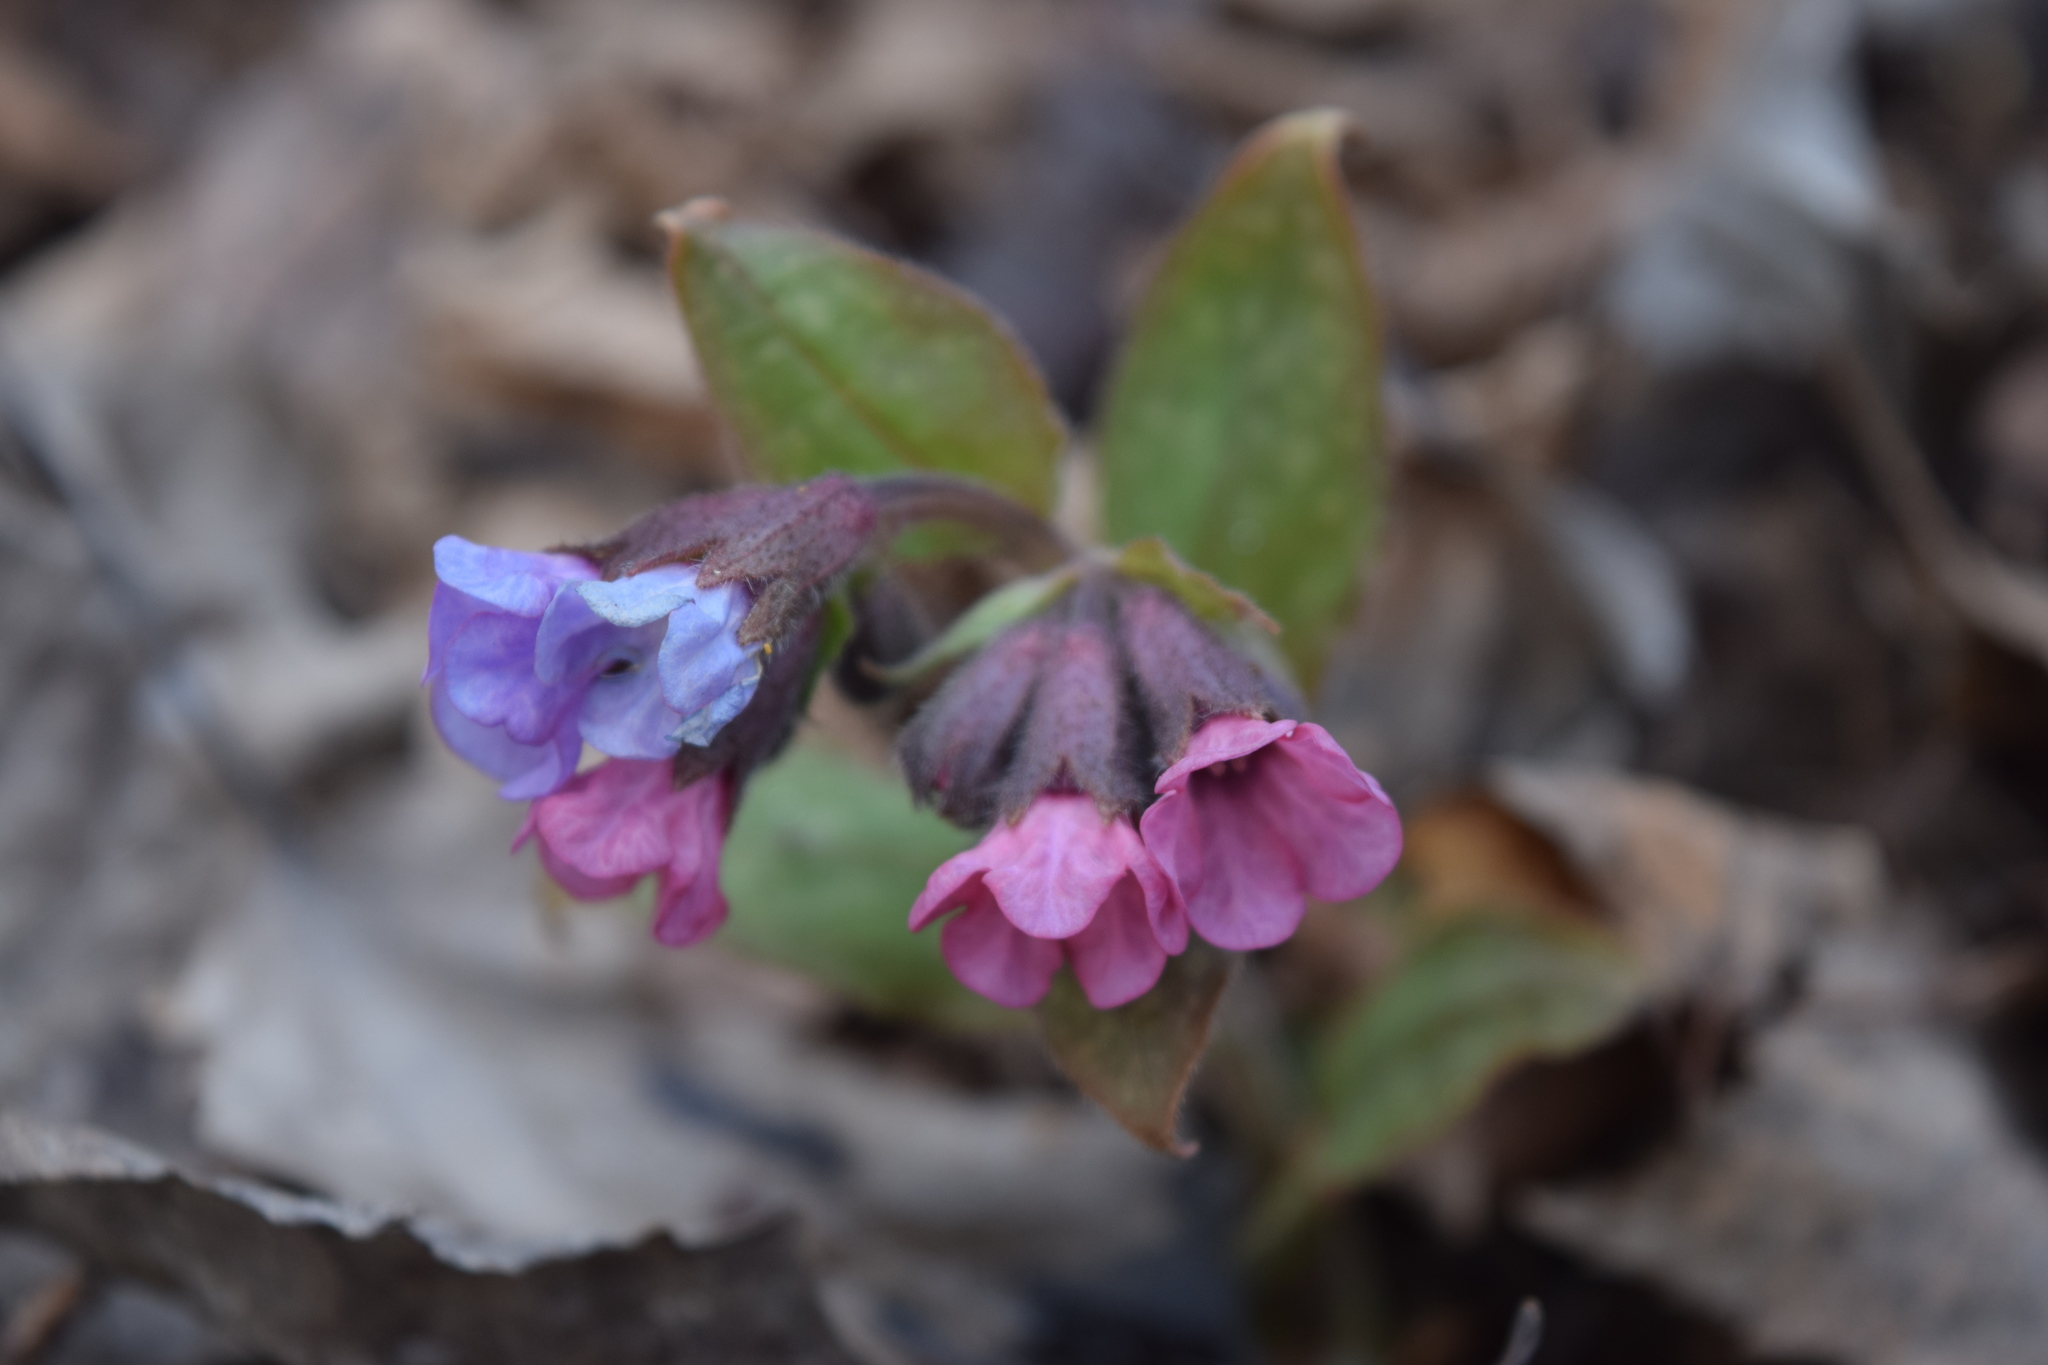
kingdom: Plantae
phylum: Tracheophyta
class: Magnoliopsida
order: Boraginales
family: Boraginaceae
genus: Pulmonaria
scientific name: Pulmonaria obscura
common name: Suffolk lungwort
